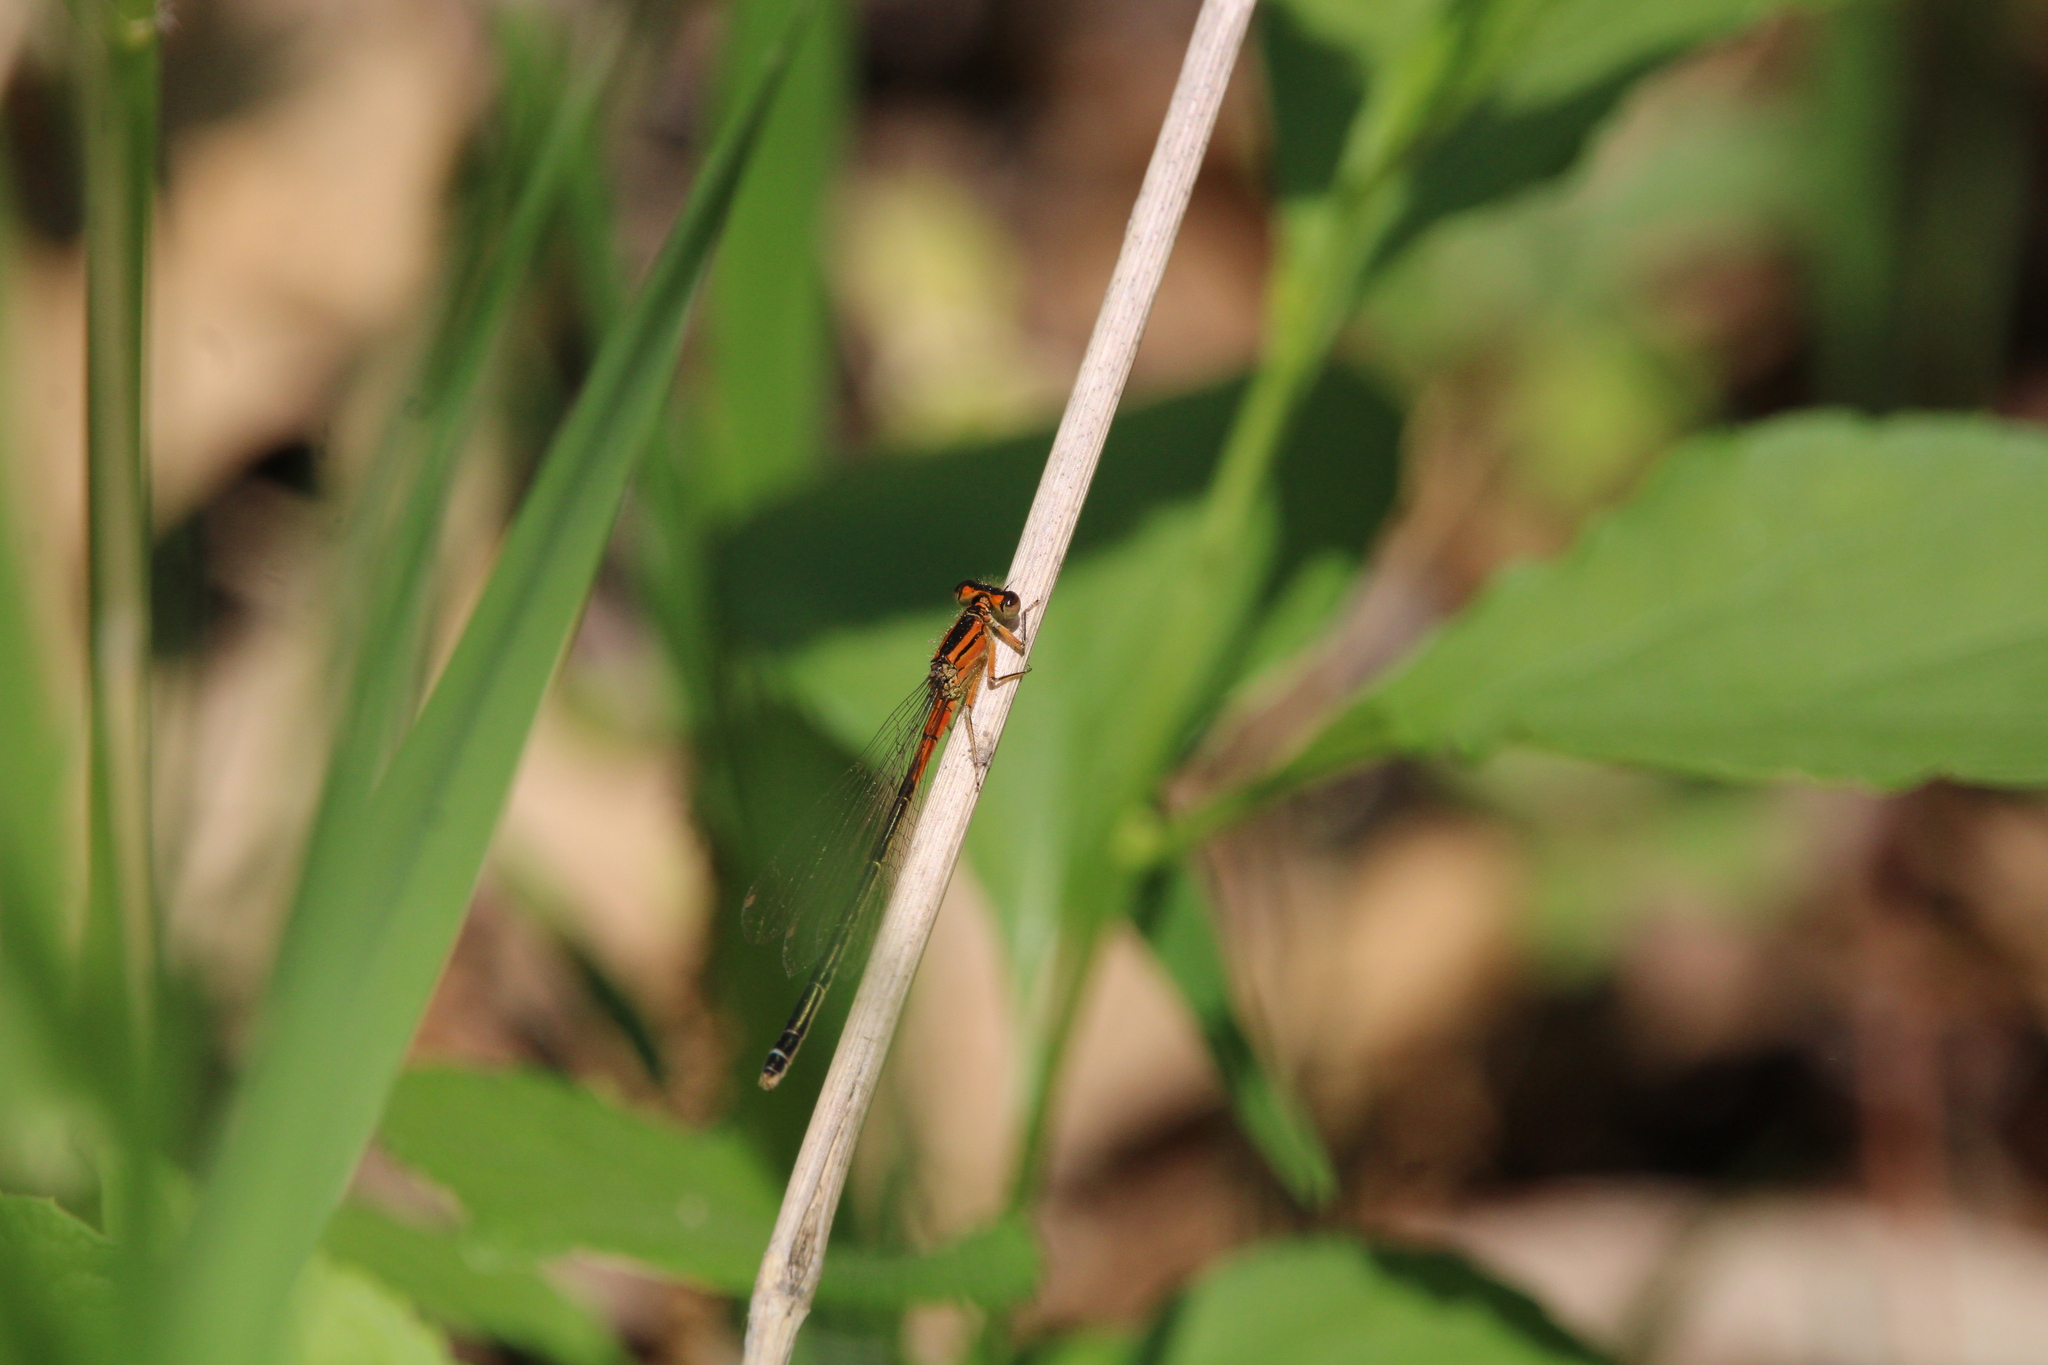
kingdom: Animalia
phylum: Arthropoda
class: Insecta
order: Odonata
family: Coenagrionidae
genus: Ischnura
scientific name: Ischnura verticalis
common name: Eastern forktail
